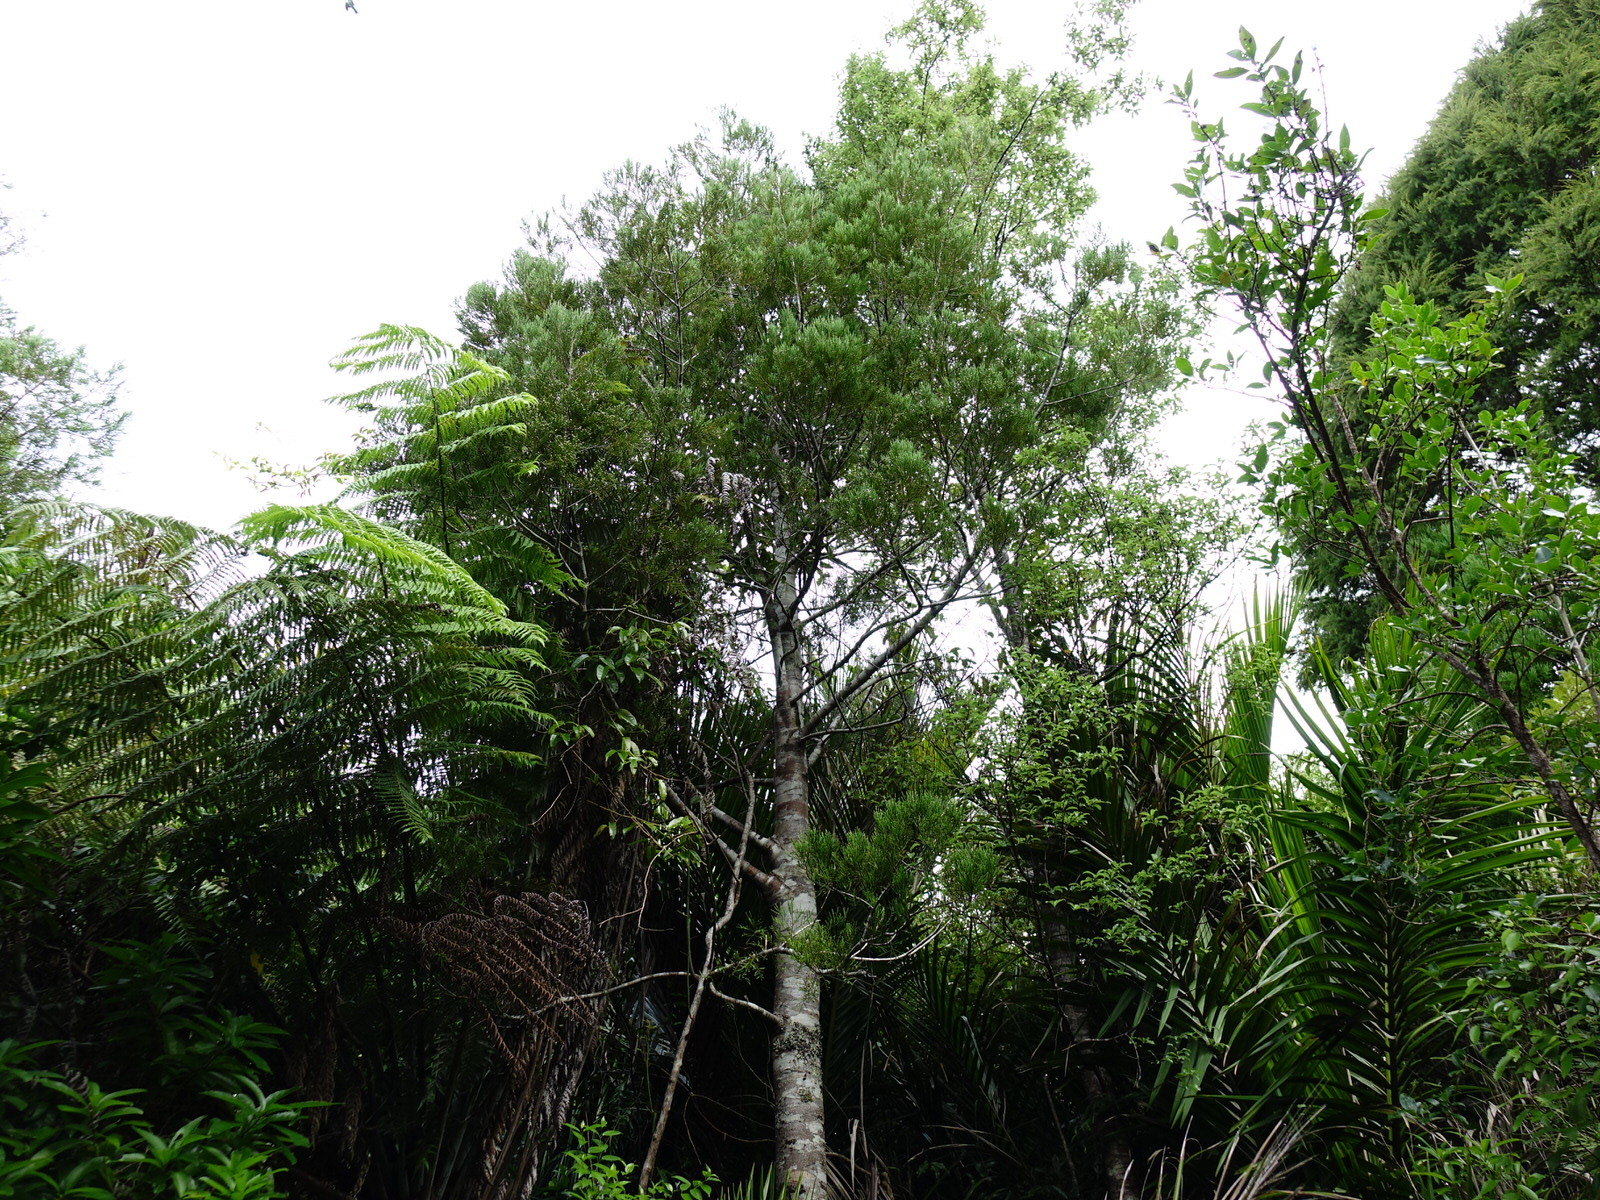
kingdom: Plantae
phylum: Tracheophyta
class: Pinopsida
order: Pinales
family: Podocarpaceae
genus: Dacrycarpus
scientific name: Dacrycarpus dacrydioides
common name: White pine
